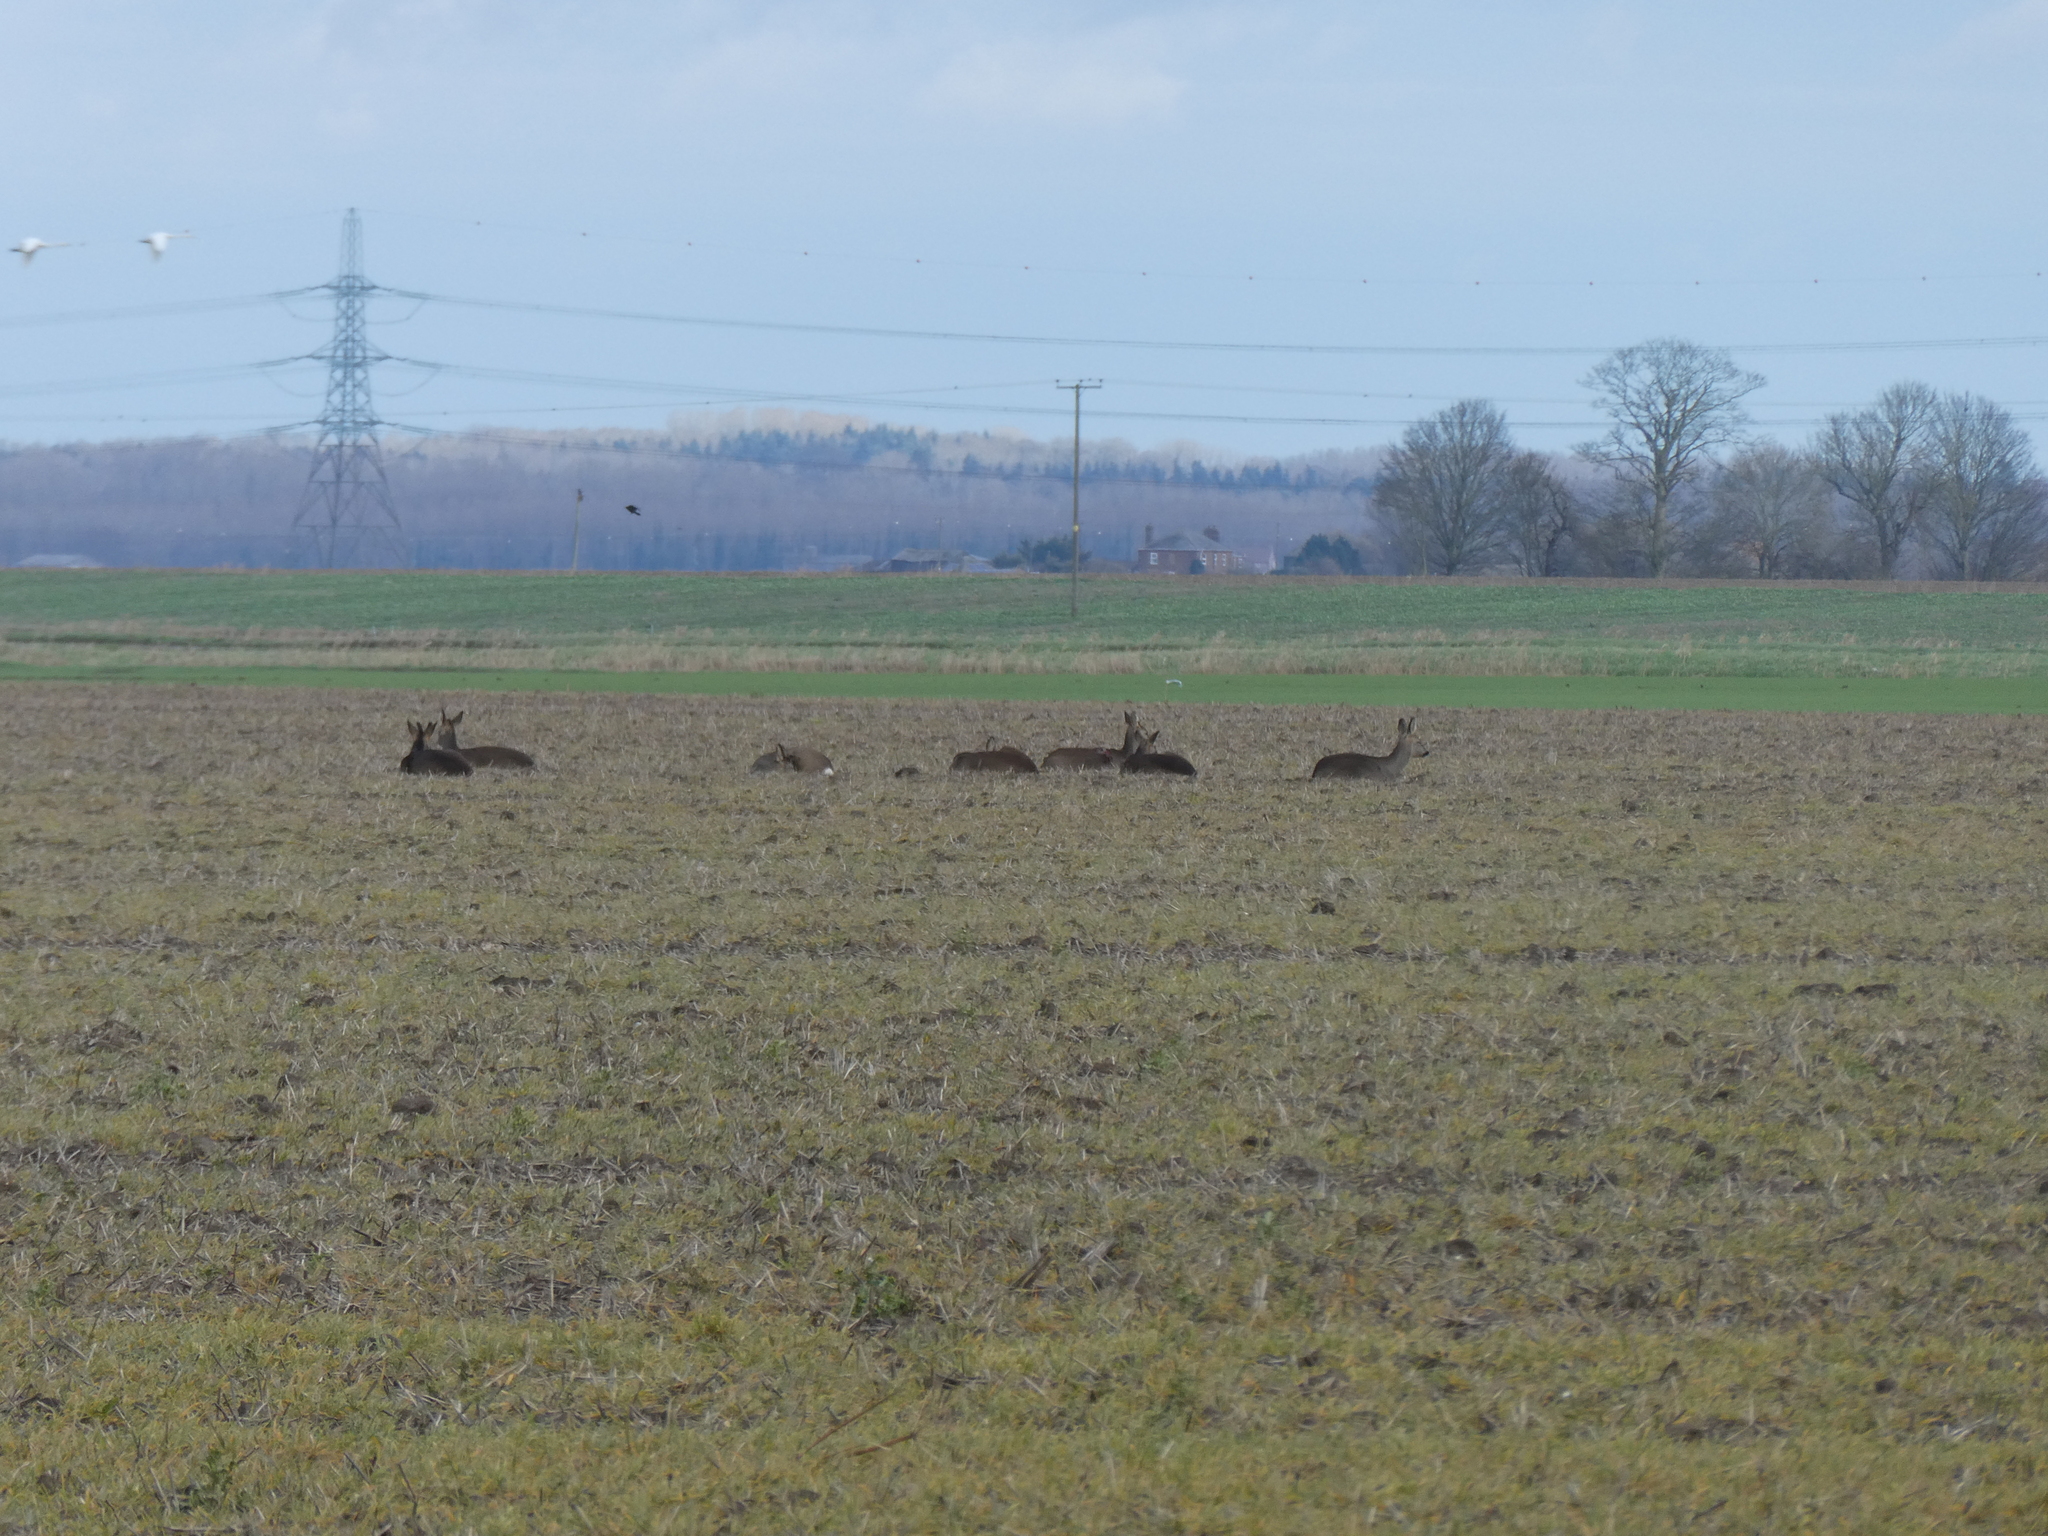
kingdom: Animalia
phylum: Chordata
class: Mammalia
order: Artiodactyla
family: Cervidae
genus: Capreolus
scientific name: Capreolus capreolus
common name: Western roe deer
